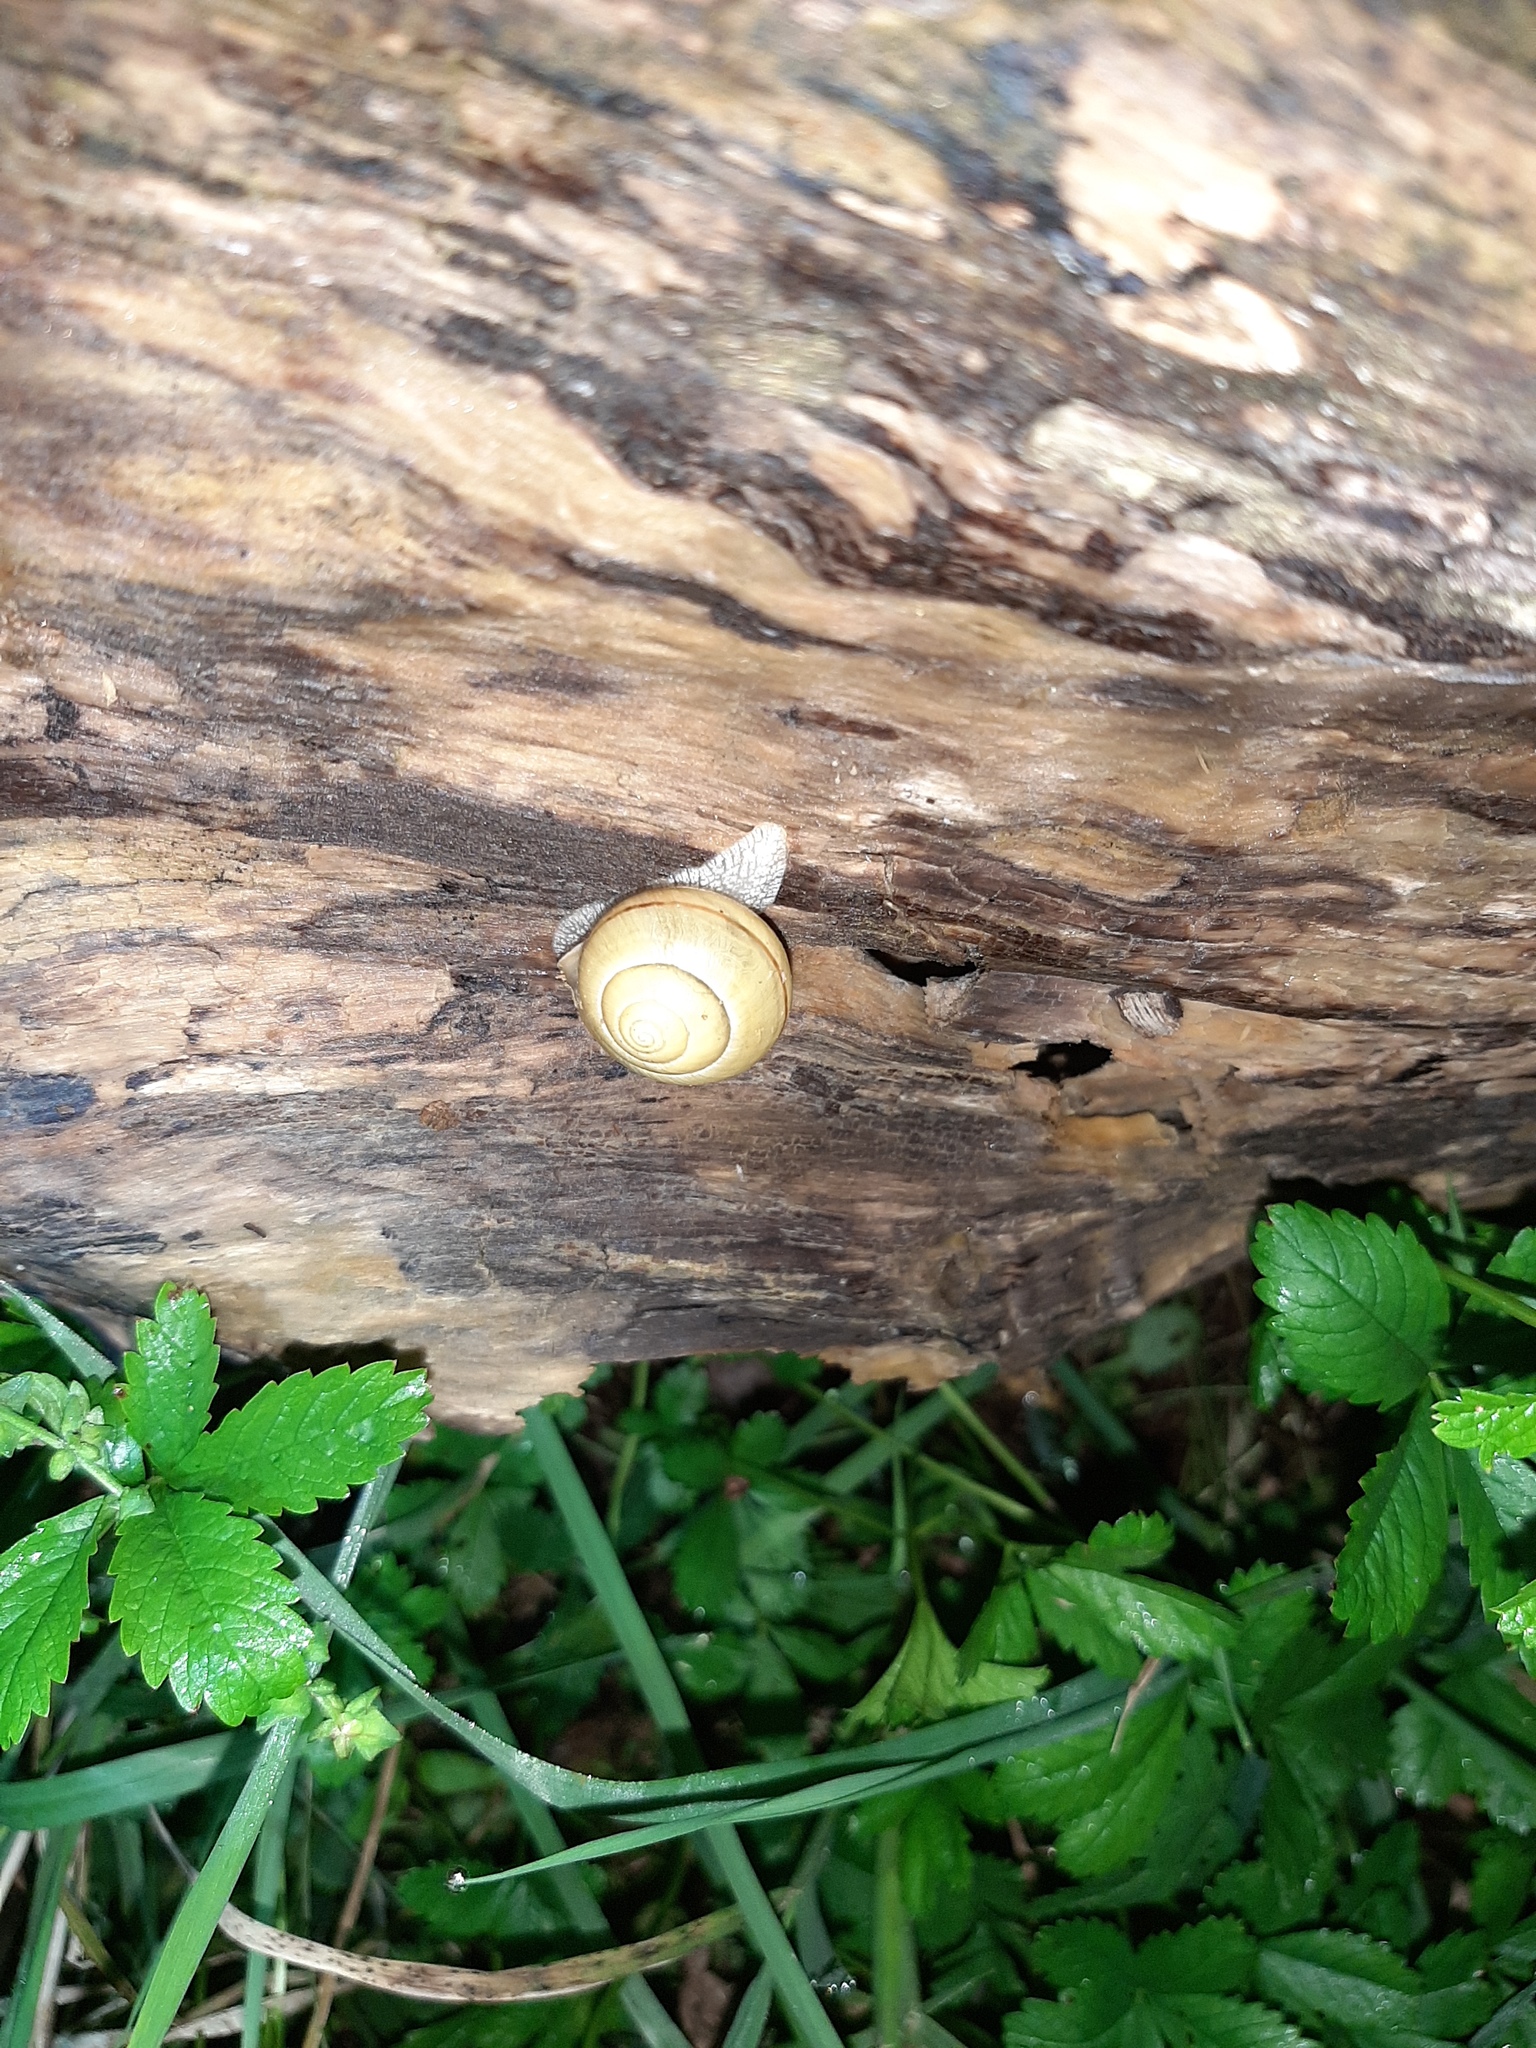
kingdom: Animalia
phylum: Mollusca
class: Gastropoda
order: Stylommatophora
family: Helicidae
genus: Cepaea
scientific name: Cepaea nemoralis
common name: Grovesnail
